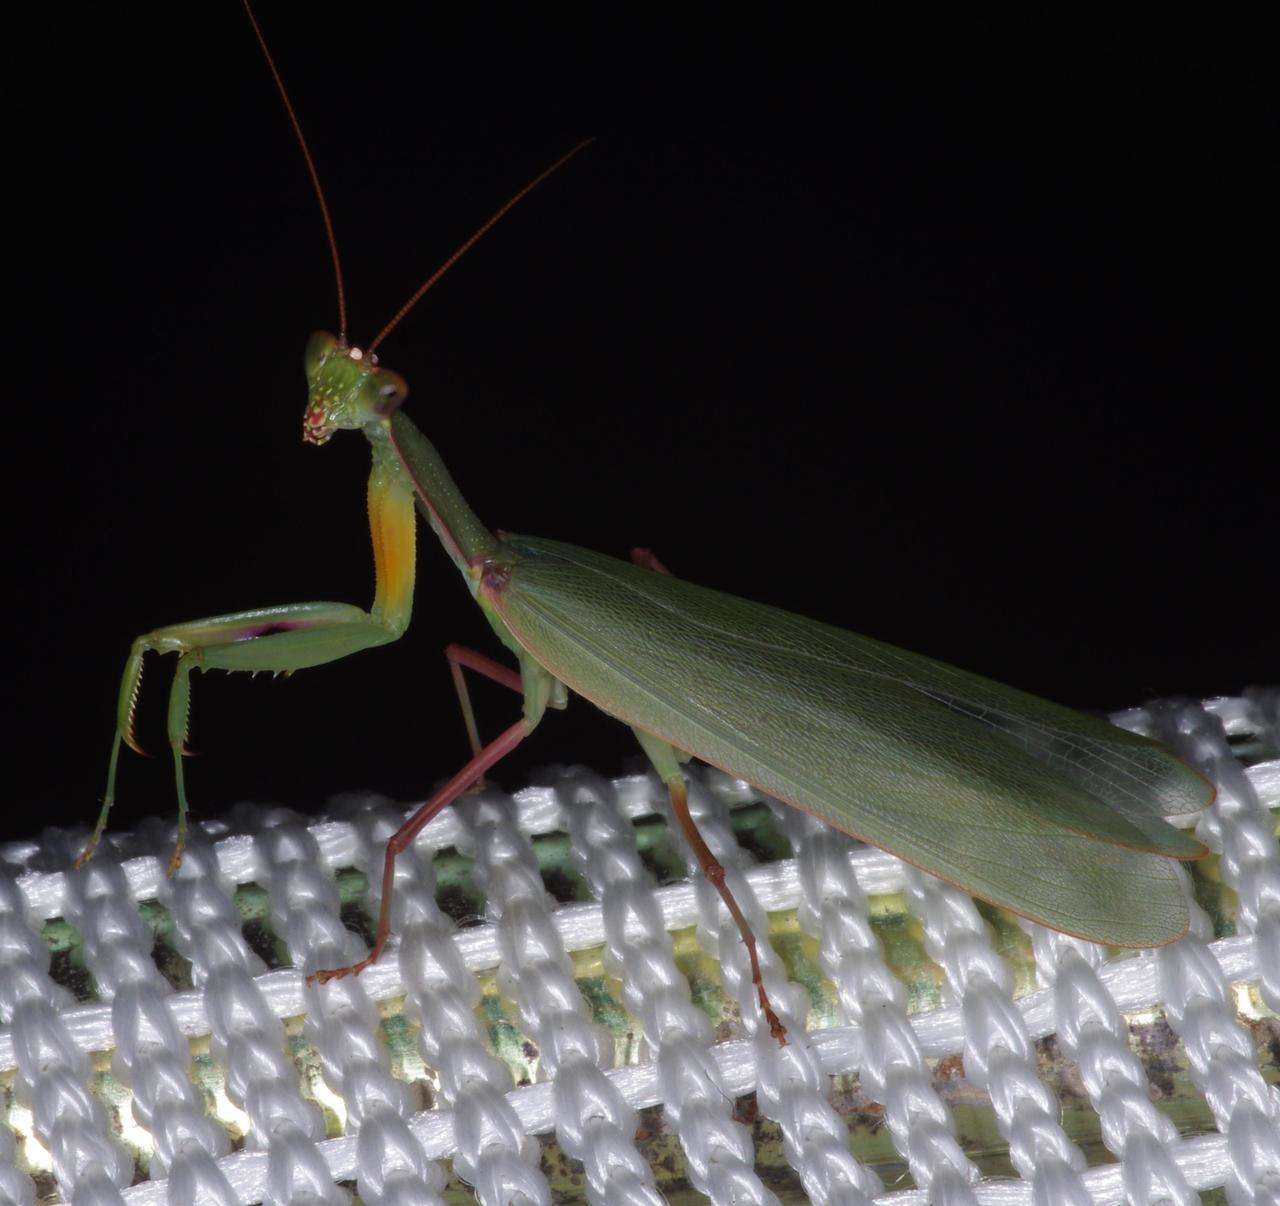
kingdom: Animalia
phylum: Arthropoda
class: Insecta
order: Mantodea
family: Mantidae
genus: Orthodera
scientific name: Orthodera ministralis
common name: Mantis
